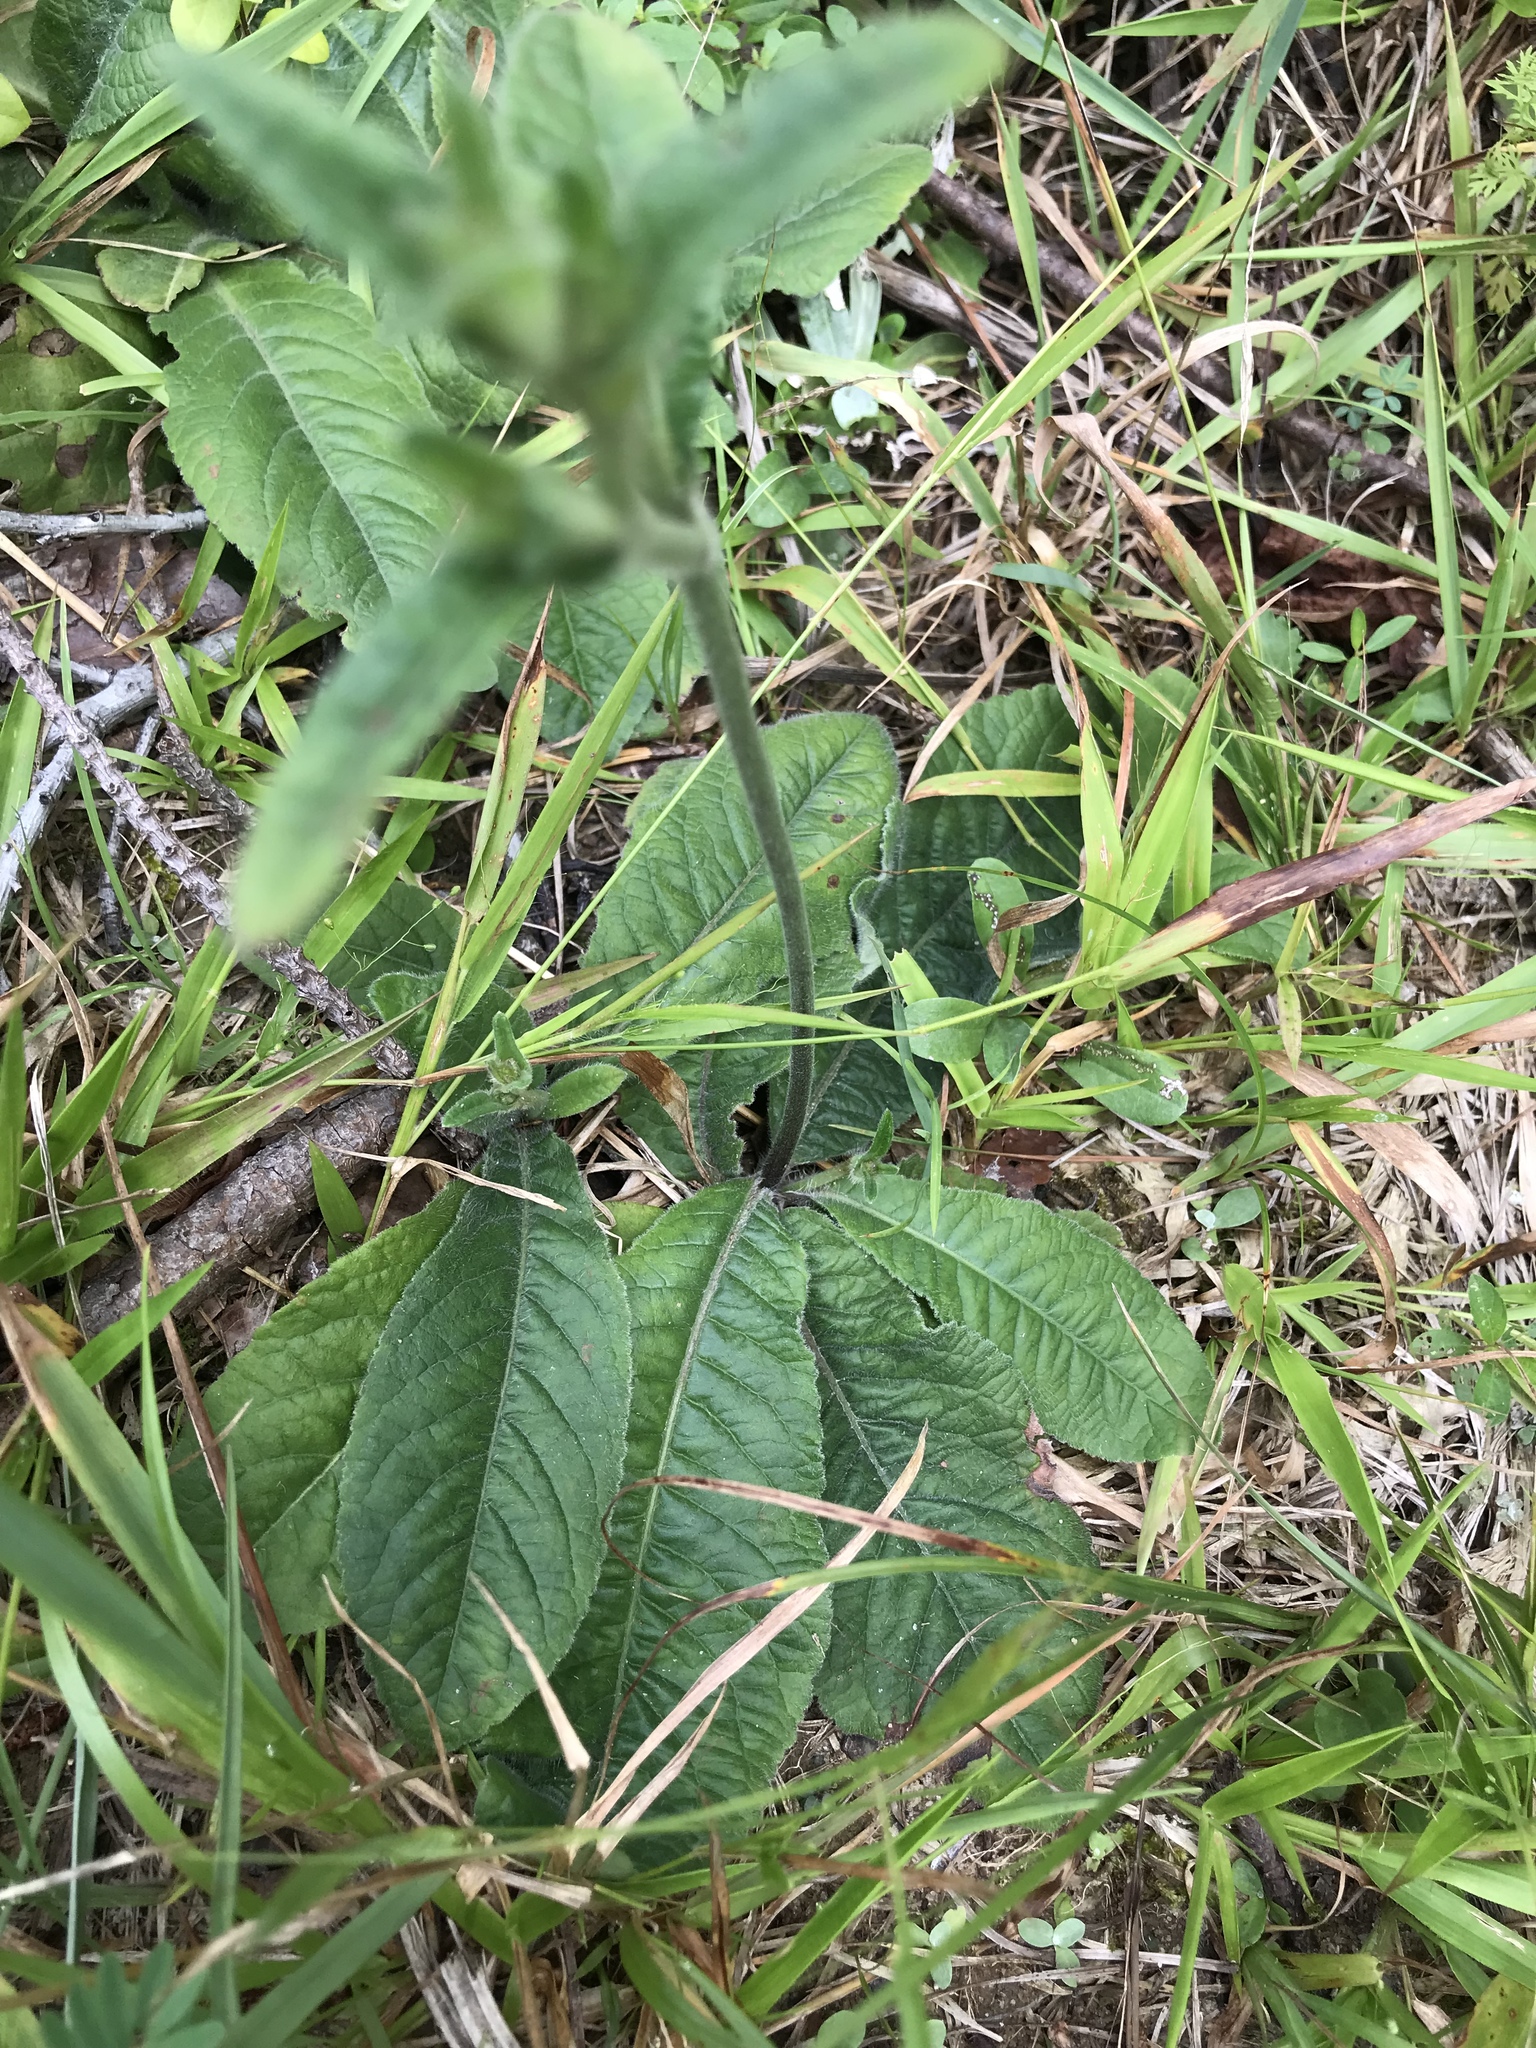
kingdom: Plantae
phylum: Tracheophyta
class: Magnoliopsida
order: Asterales
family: Asteraceae
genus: Elephantopus
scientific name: Elephantopus tomentosus
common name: Tobacco-weed
